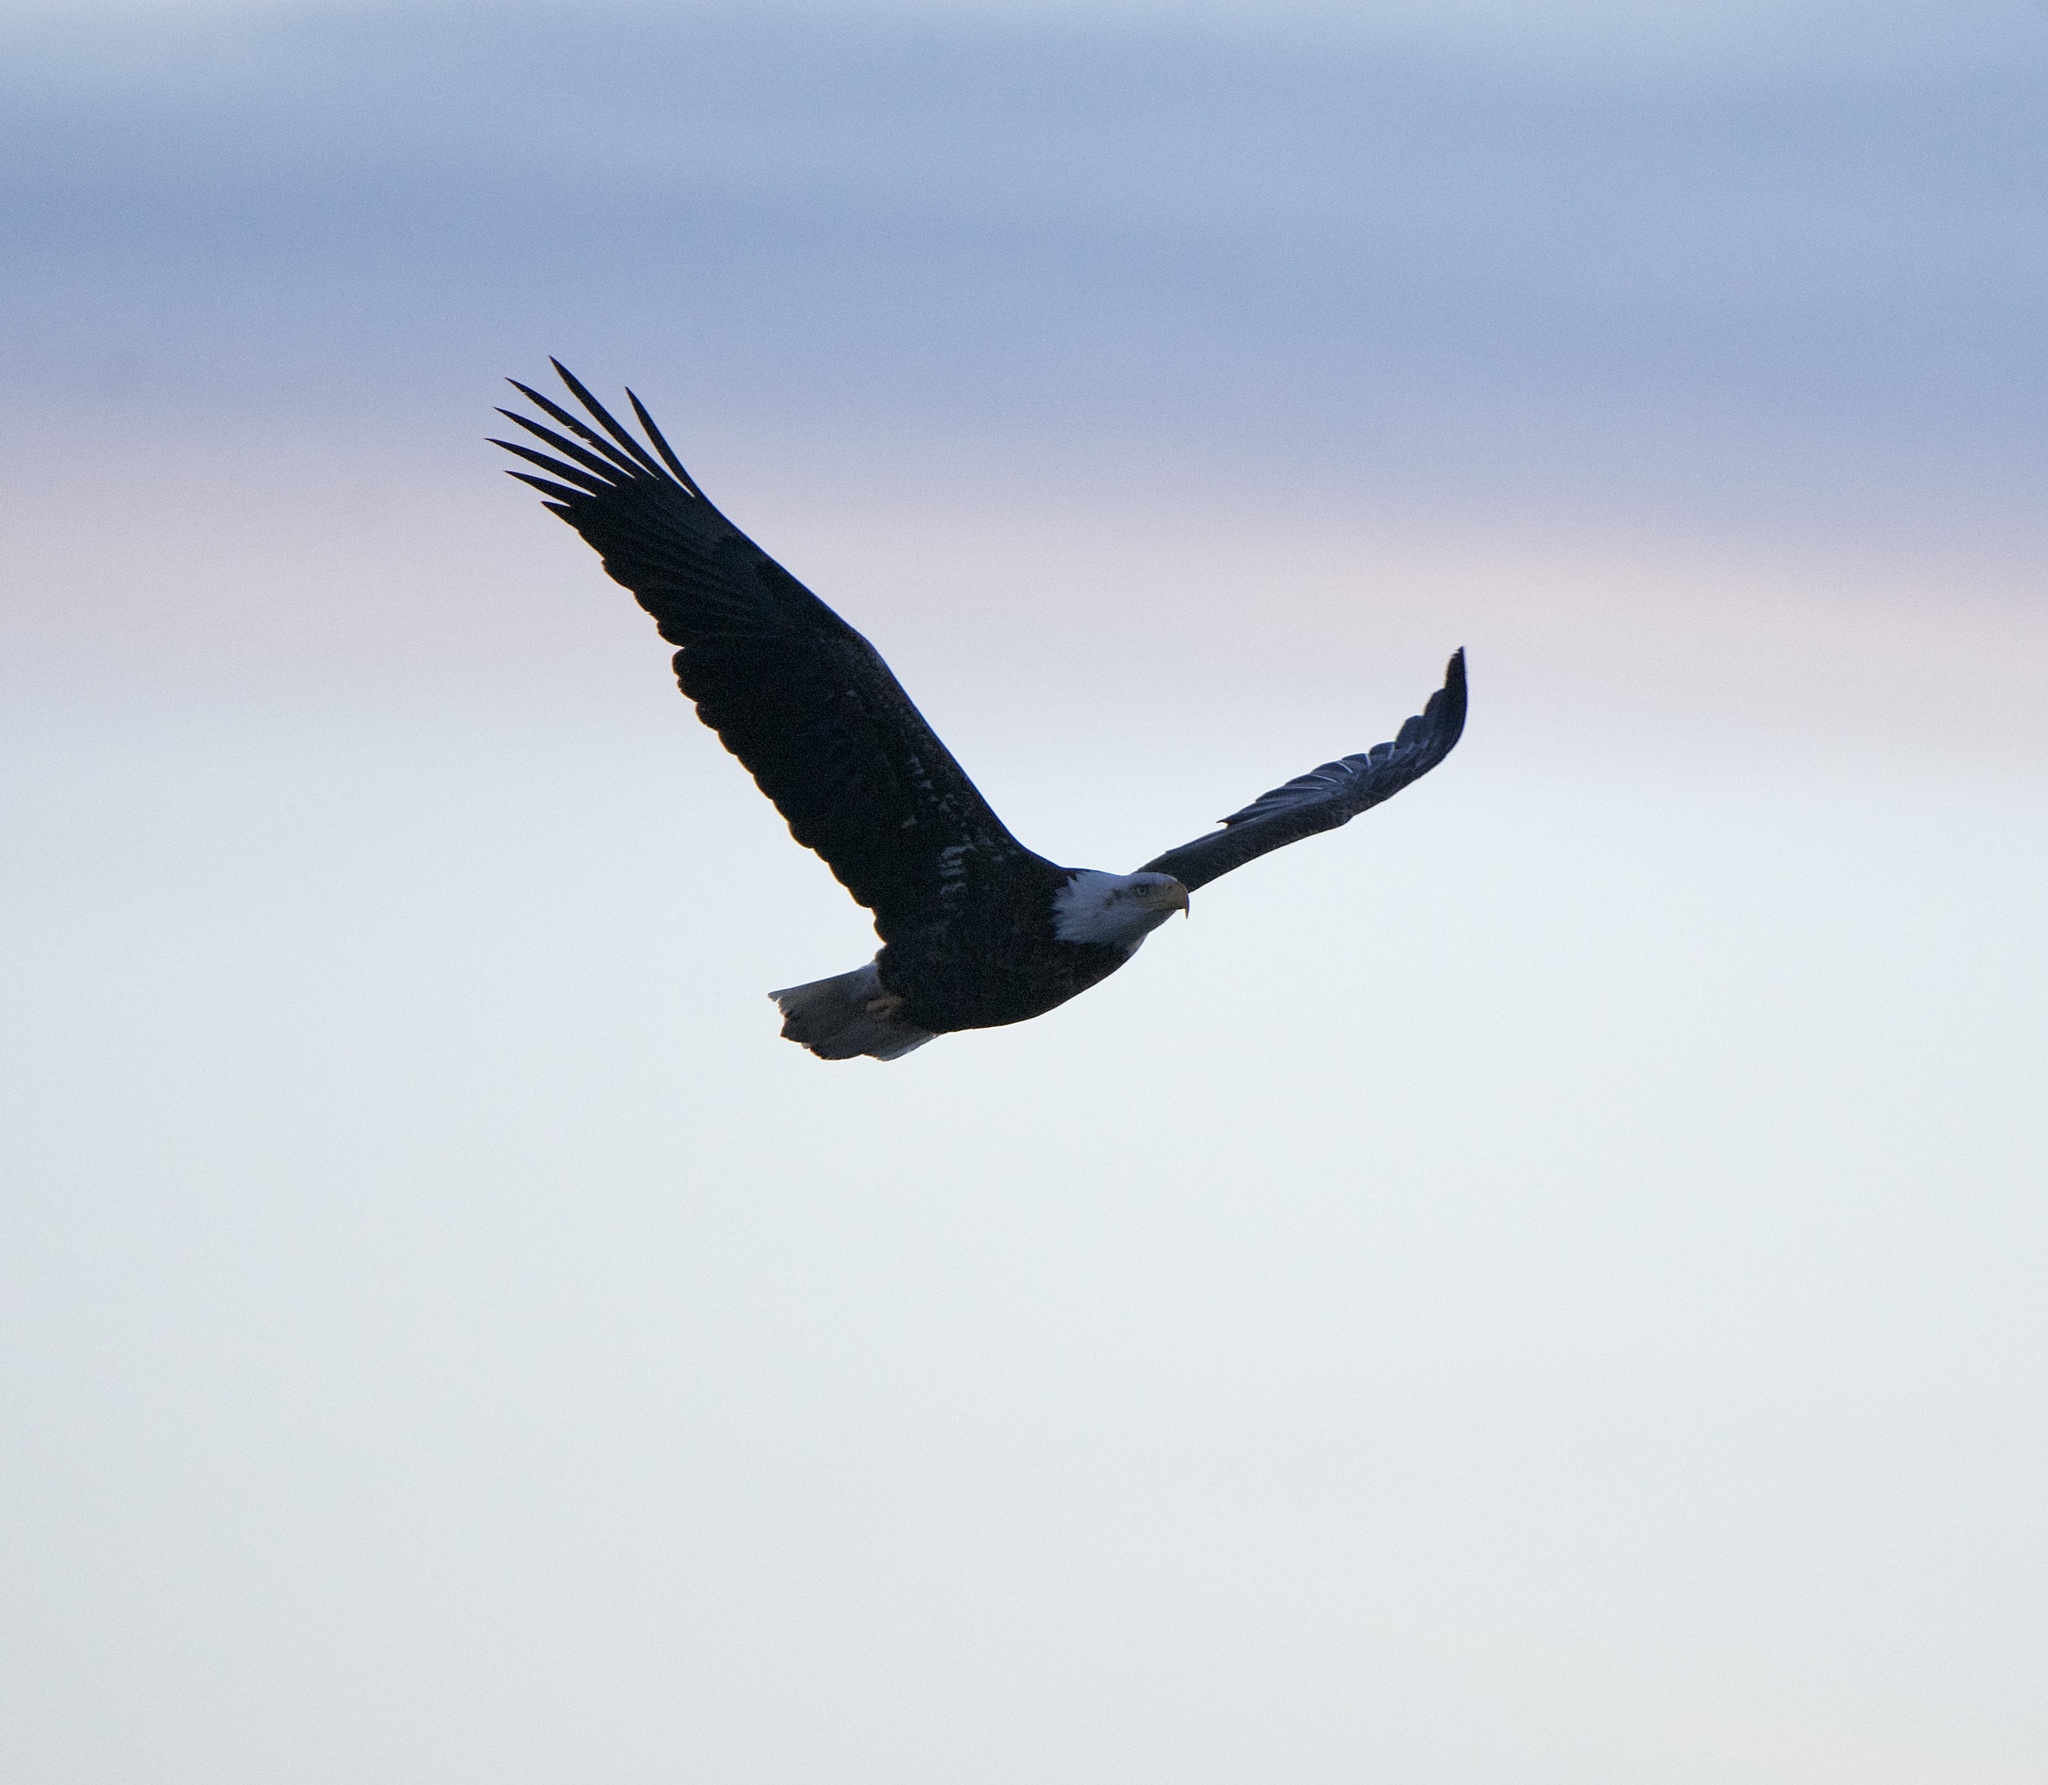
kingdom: Animalia
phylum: Chordata
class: Aves
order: Accipitriformes
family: Accipitridae
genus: Haliaeetus
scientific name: Haliaeetus leucocephalus
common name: Bald eagle
